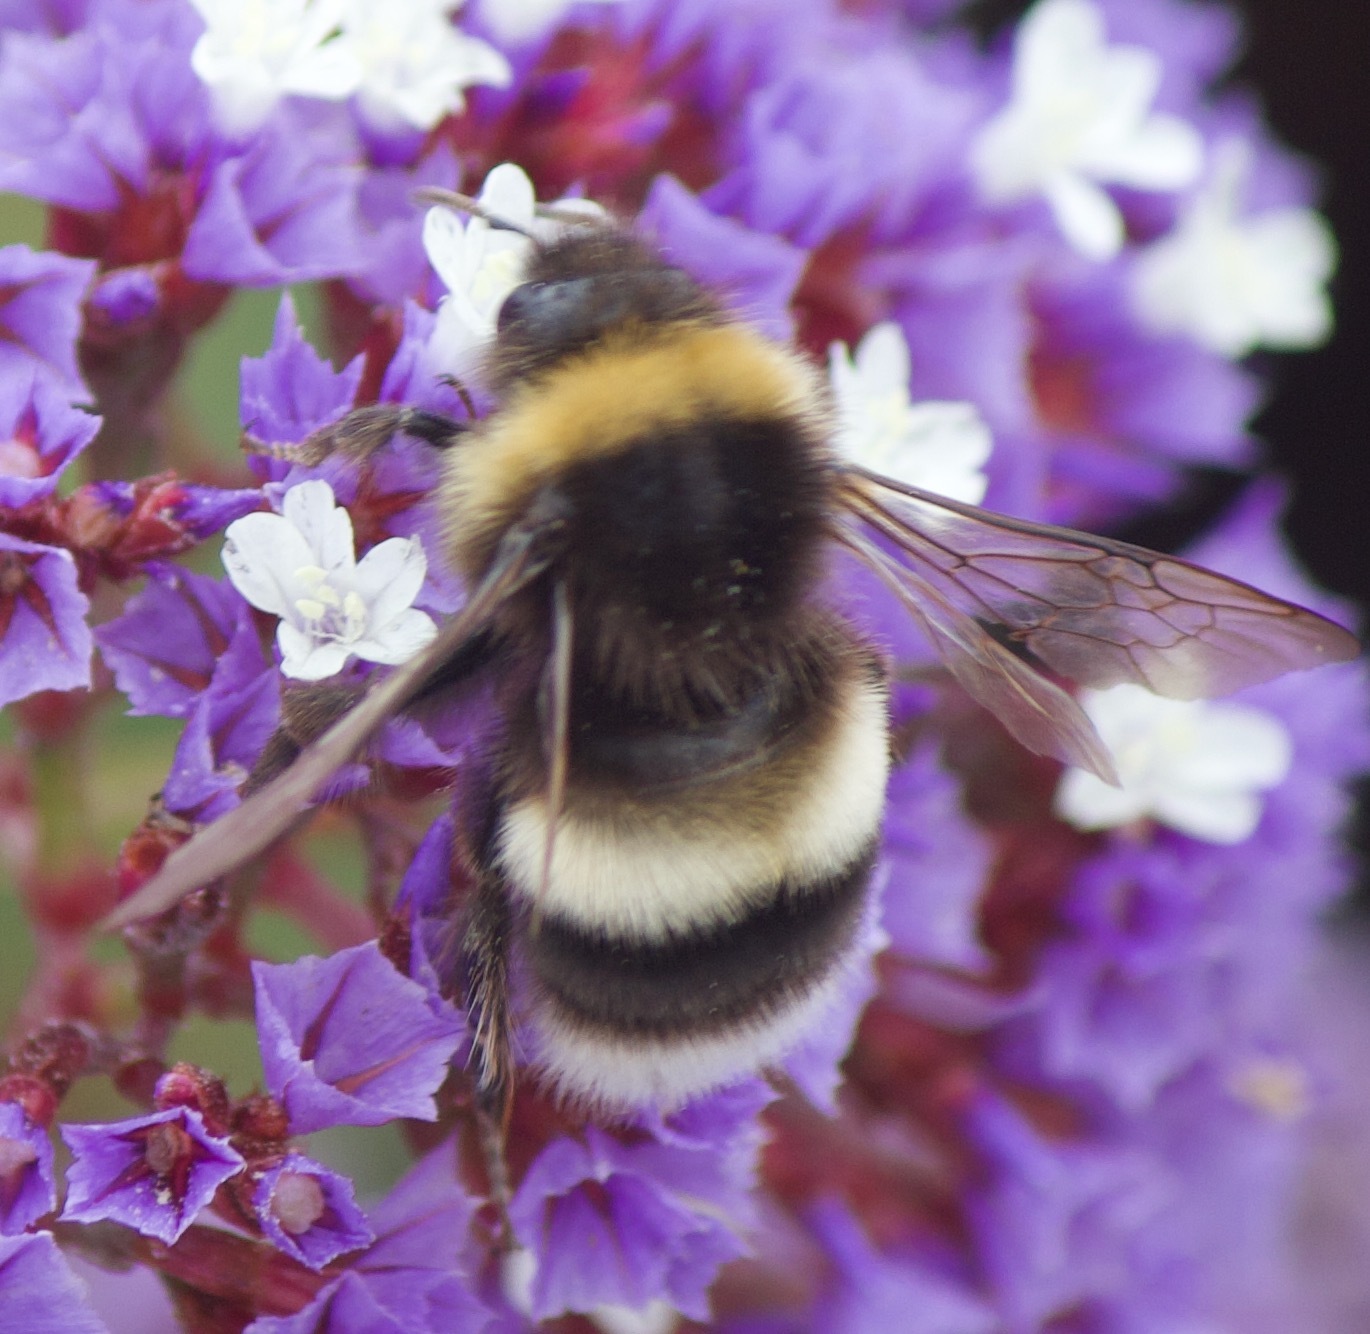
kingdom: Animalia
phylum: Arthropoda
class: Insecta
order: Hymenoptera
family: Apidae
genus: Bombus
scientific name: Bombus terrestris
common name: Buff-tailed bumblebee
